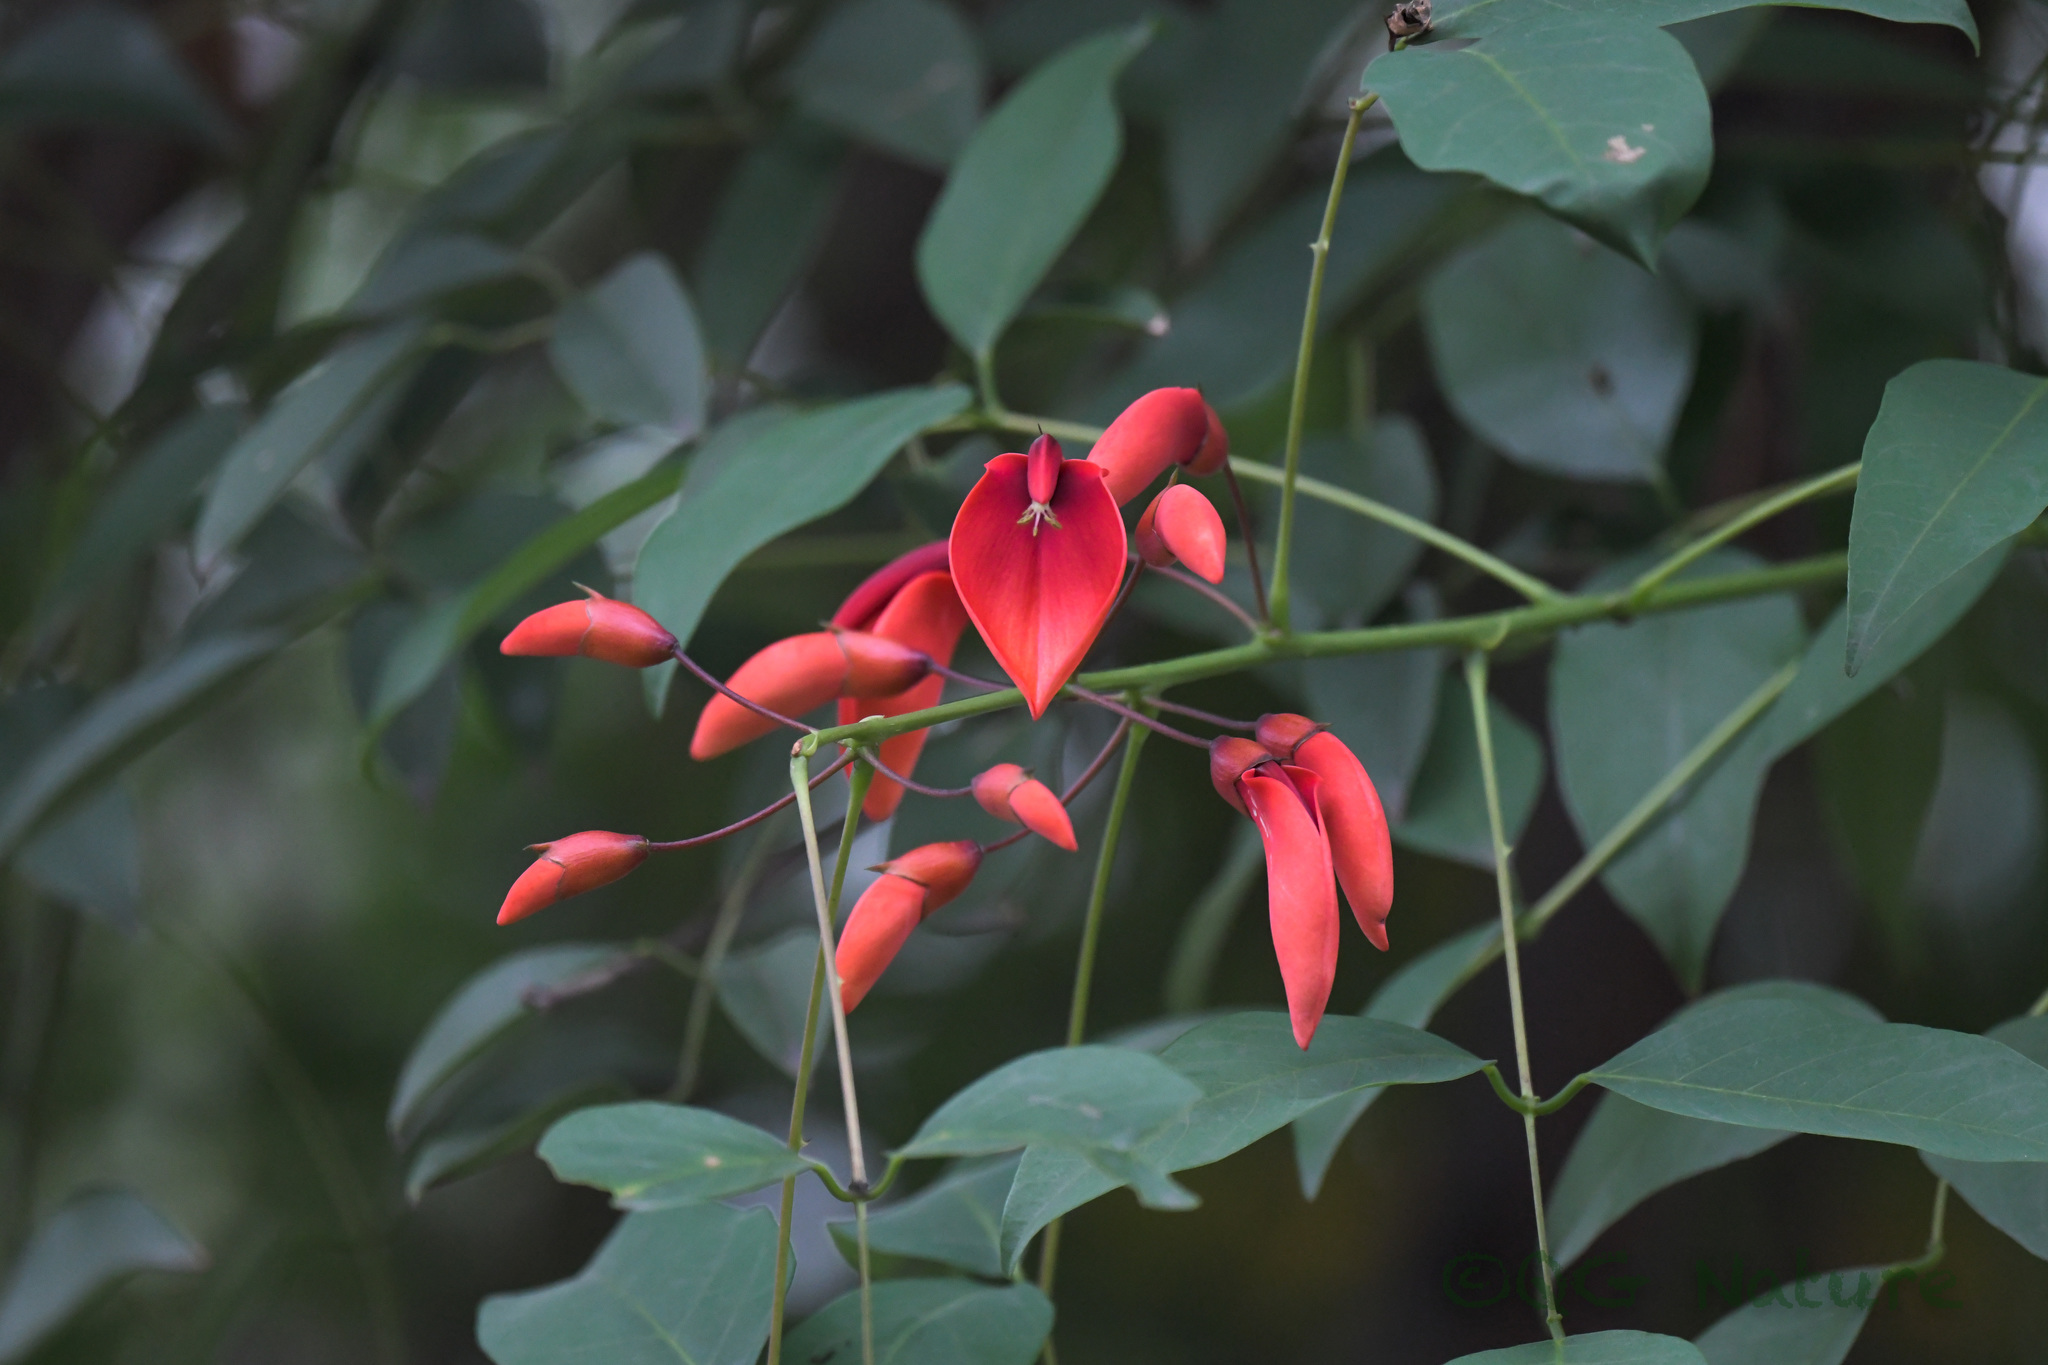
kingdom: Plantae
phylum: Tracheophyta
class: Magnoliopsida
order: Fabales
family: Fabaceae
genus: Erythrina
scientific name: Erythrina crista-galli
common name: Cockspur coral tree
